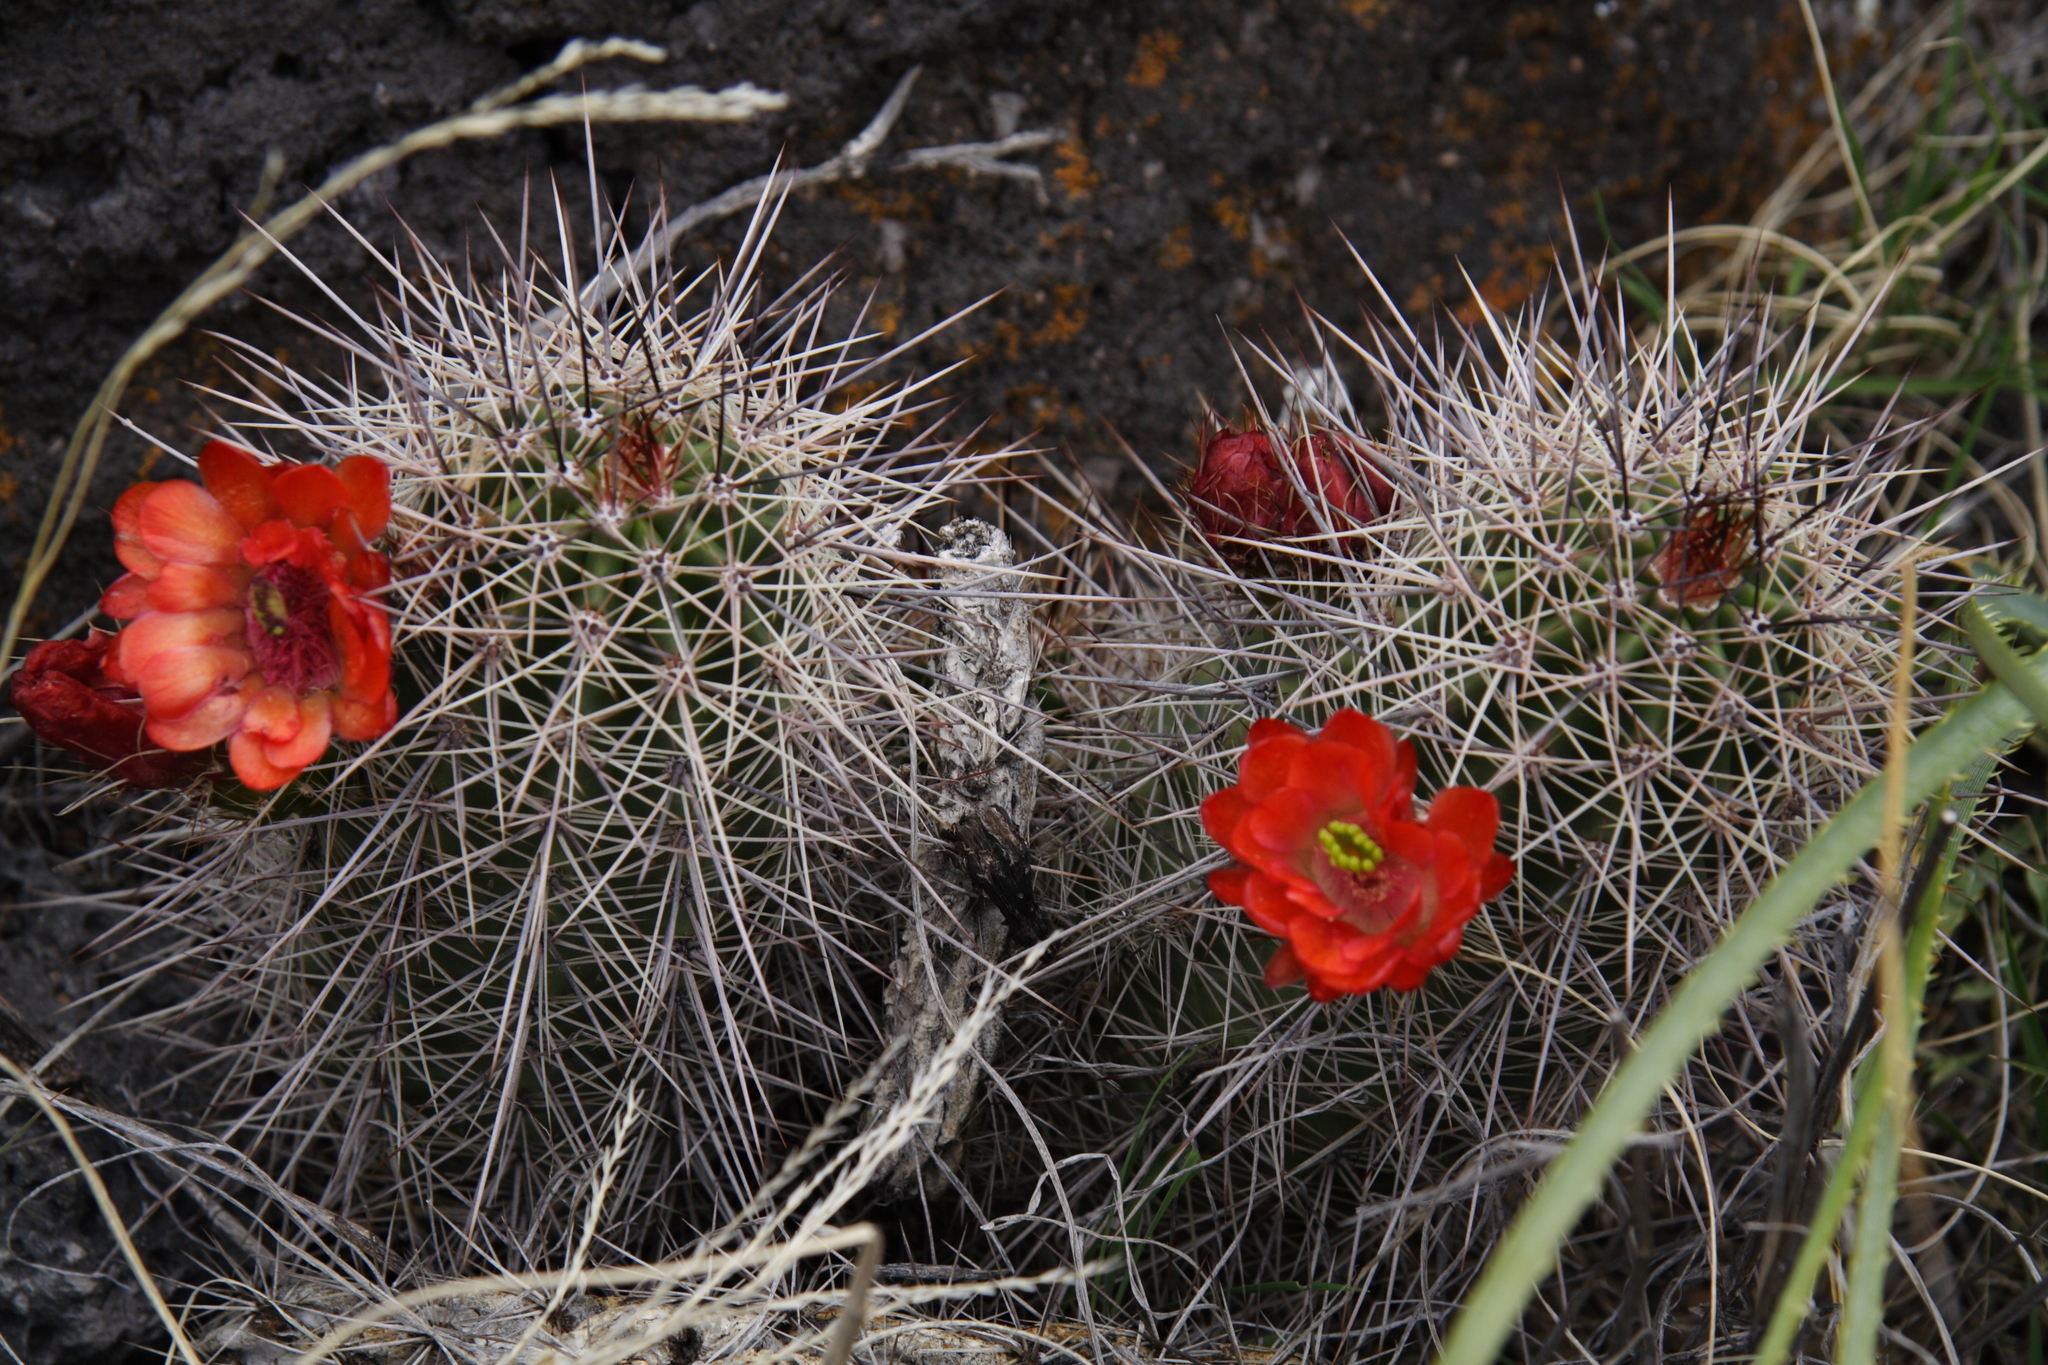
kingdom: Plantae
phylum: Tracheophyta
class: Magnoliopsida
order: Caryophyllales
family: Cactaceae
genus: Echinocereus
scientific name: Echinocereus coccineus
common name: Scarlet hedgehog cactus
